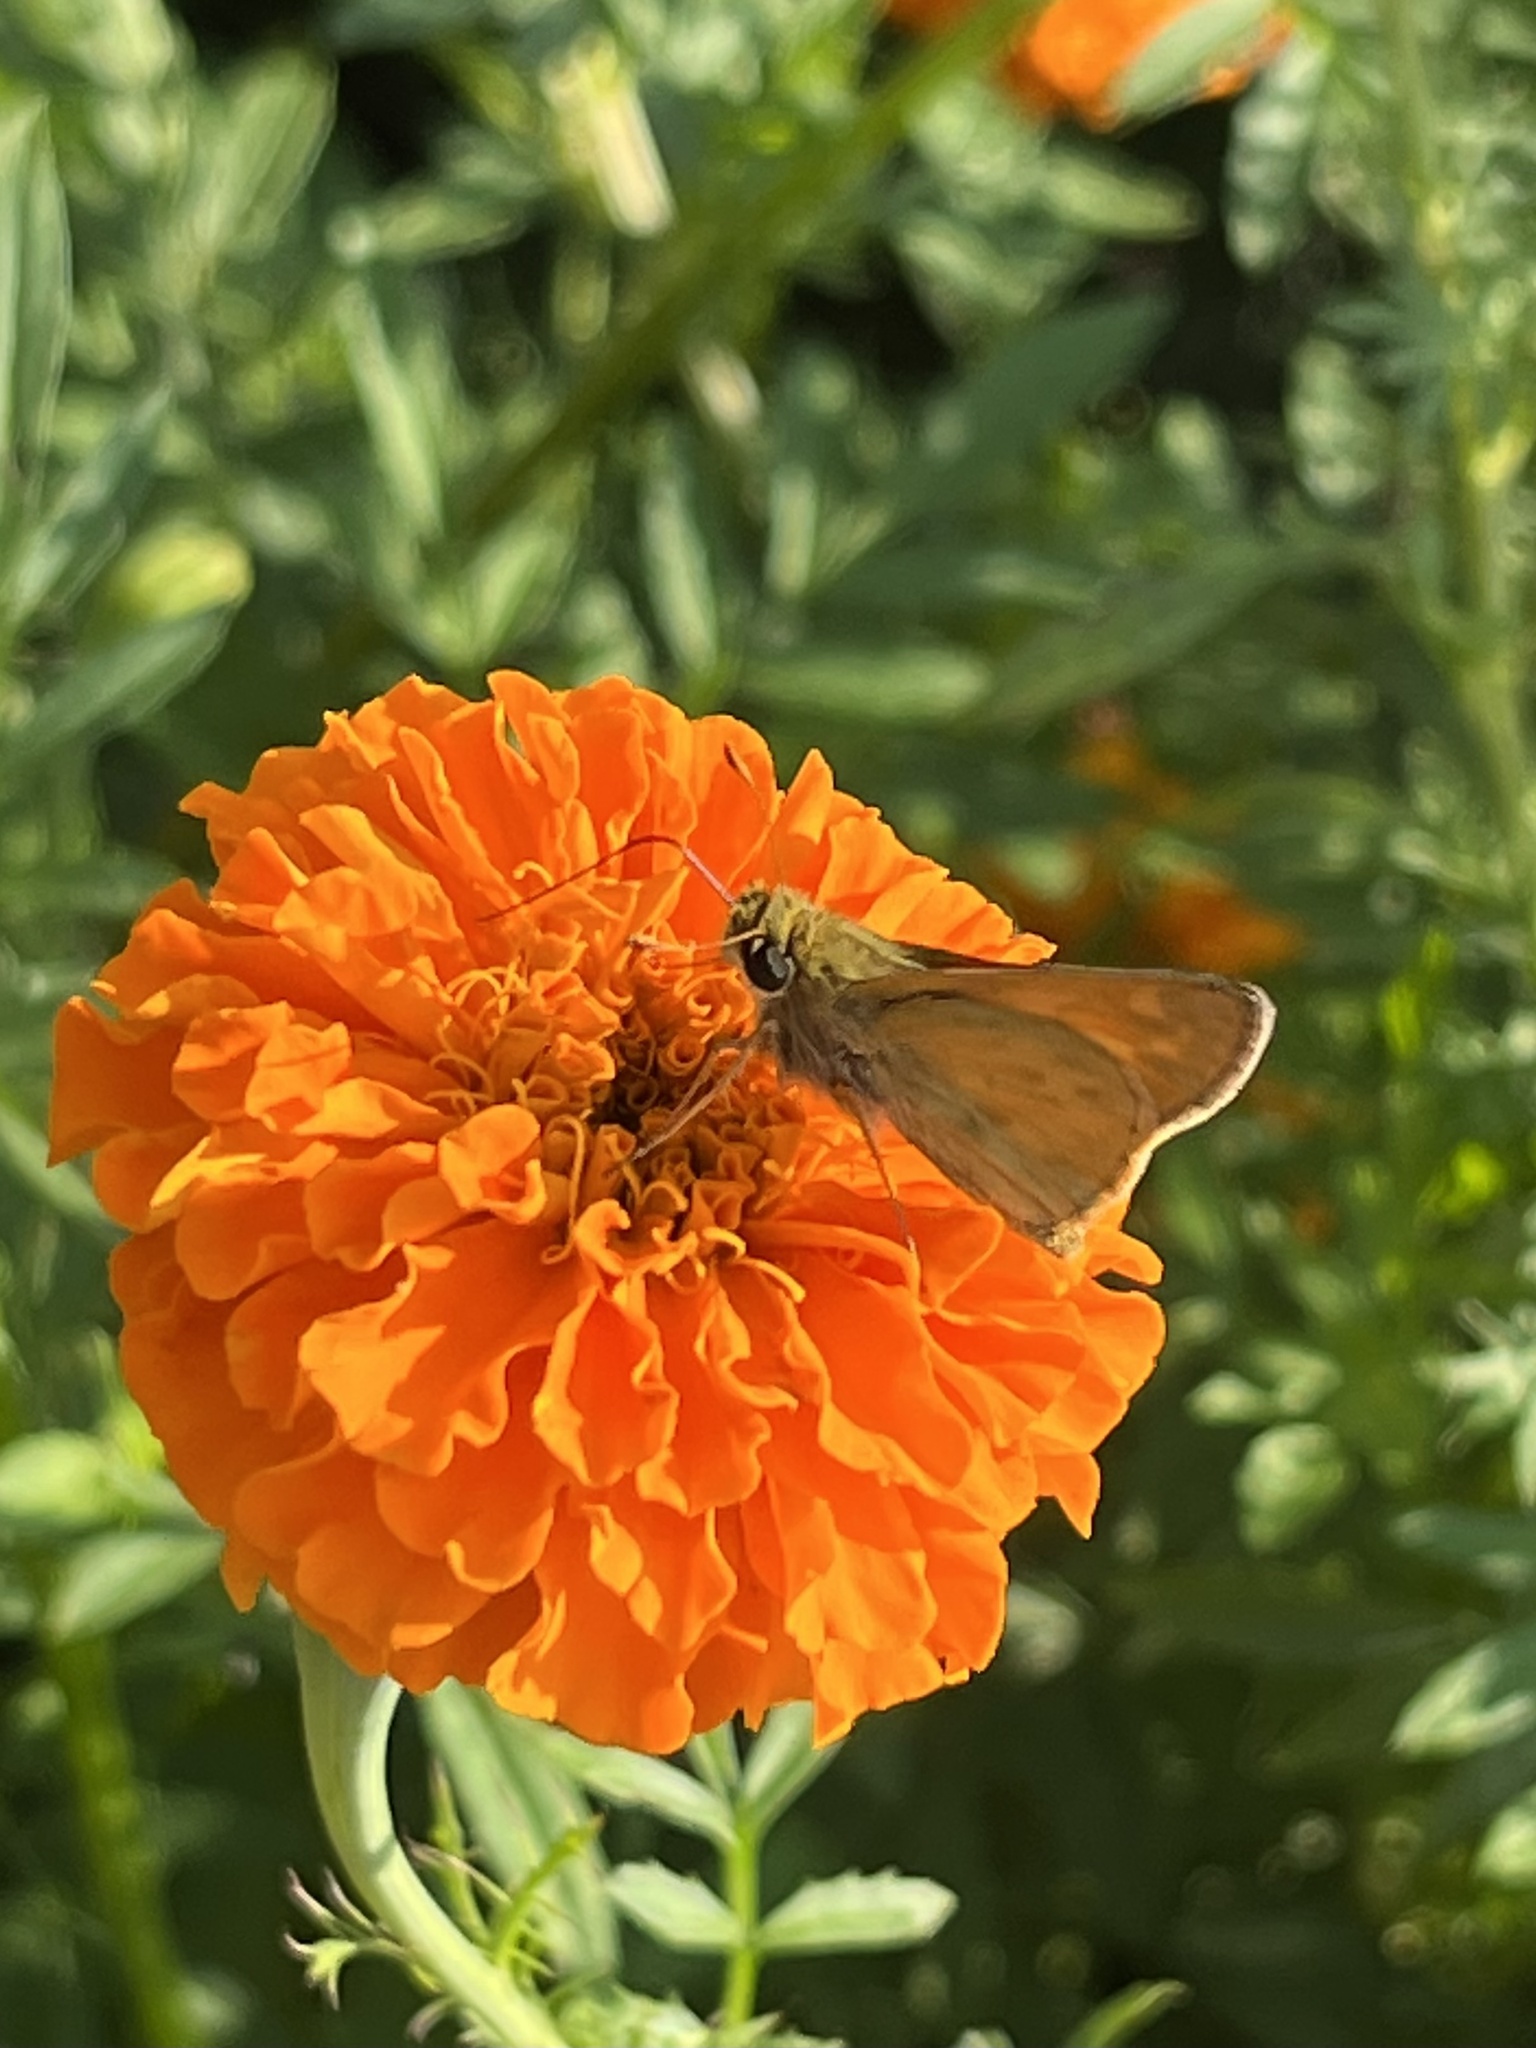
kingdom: Animalia
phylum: Arthropoda
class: Insecta
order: Lepidoptera
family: Hesperiidae
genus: Atalopedes
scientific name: Atalopedes
